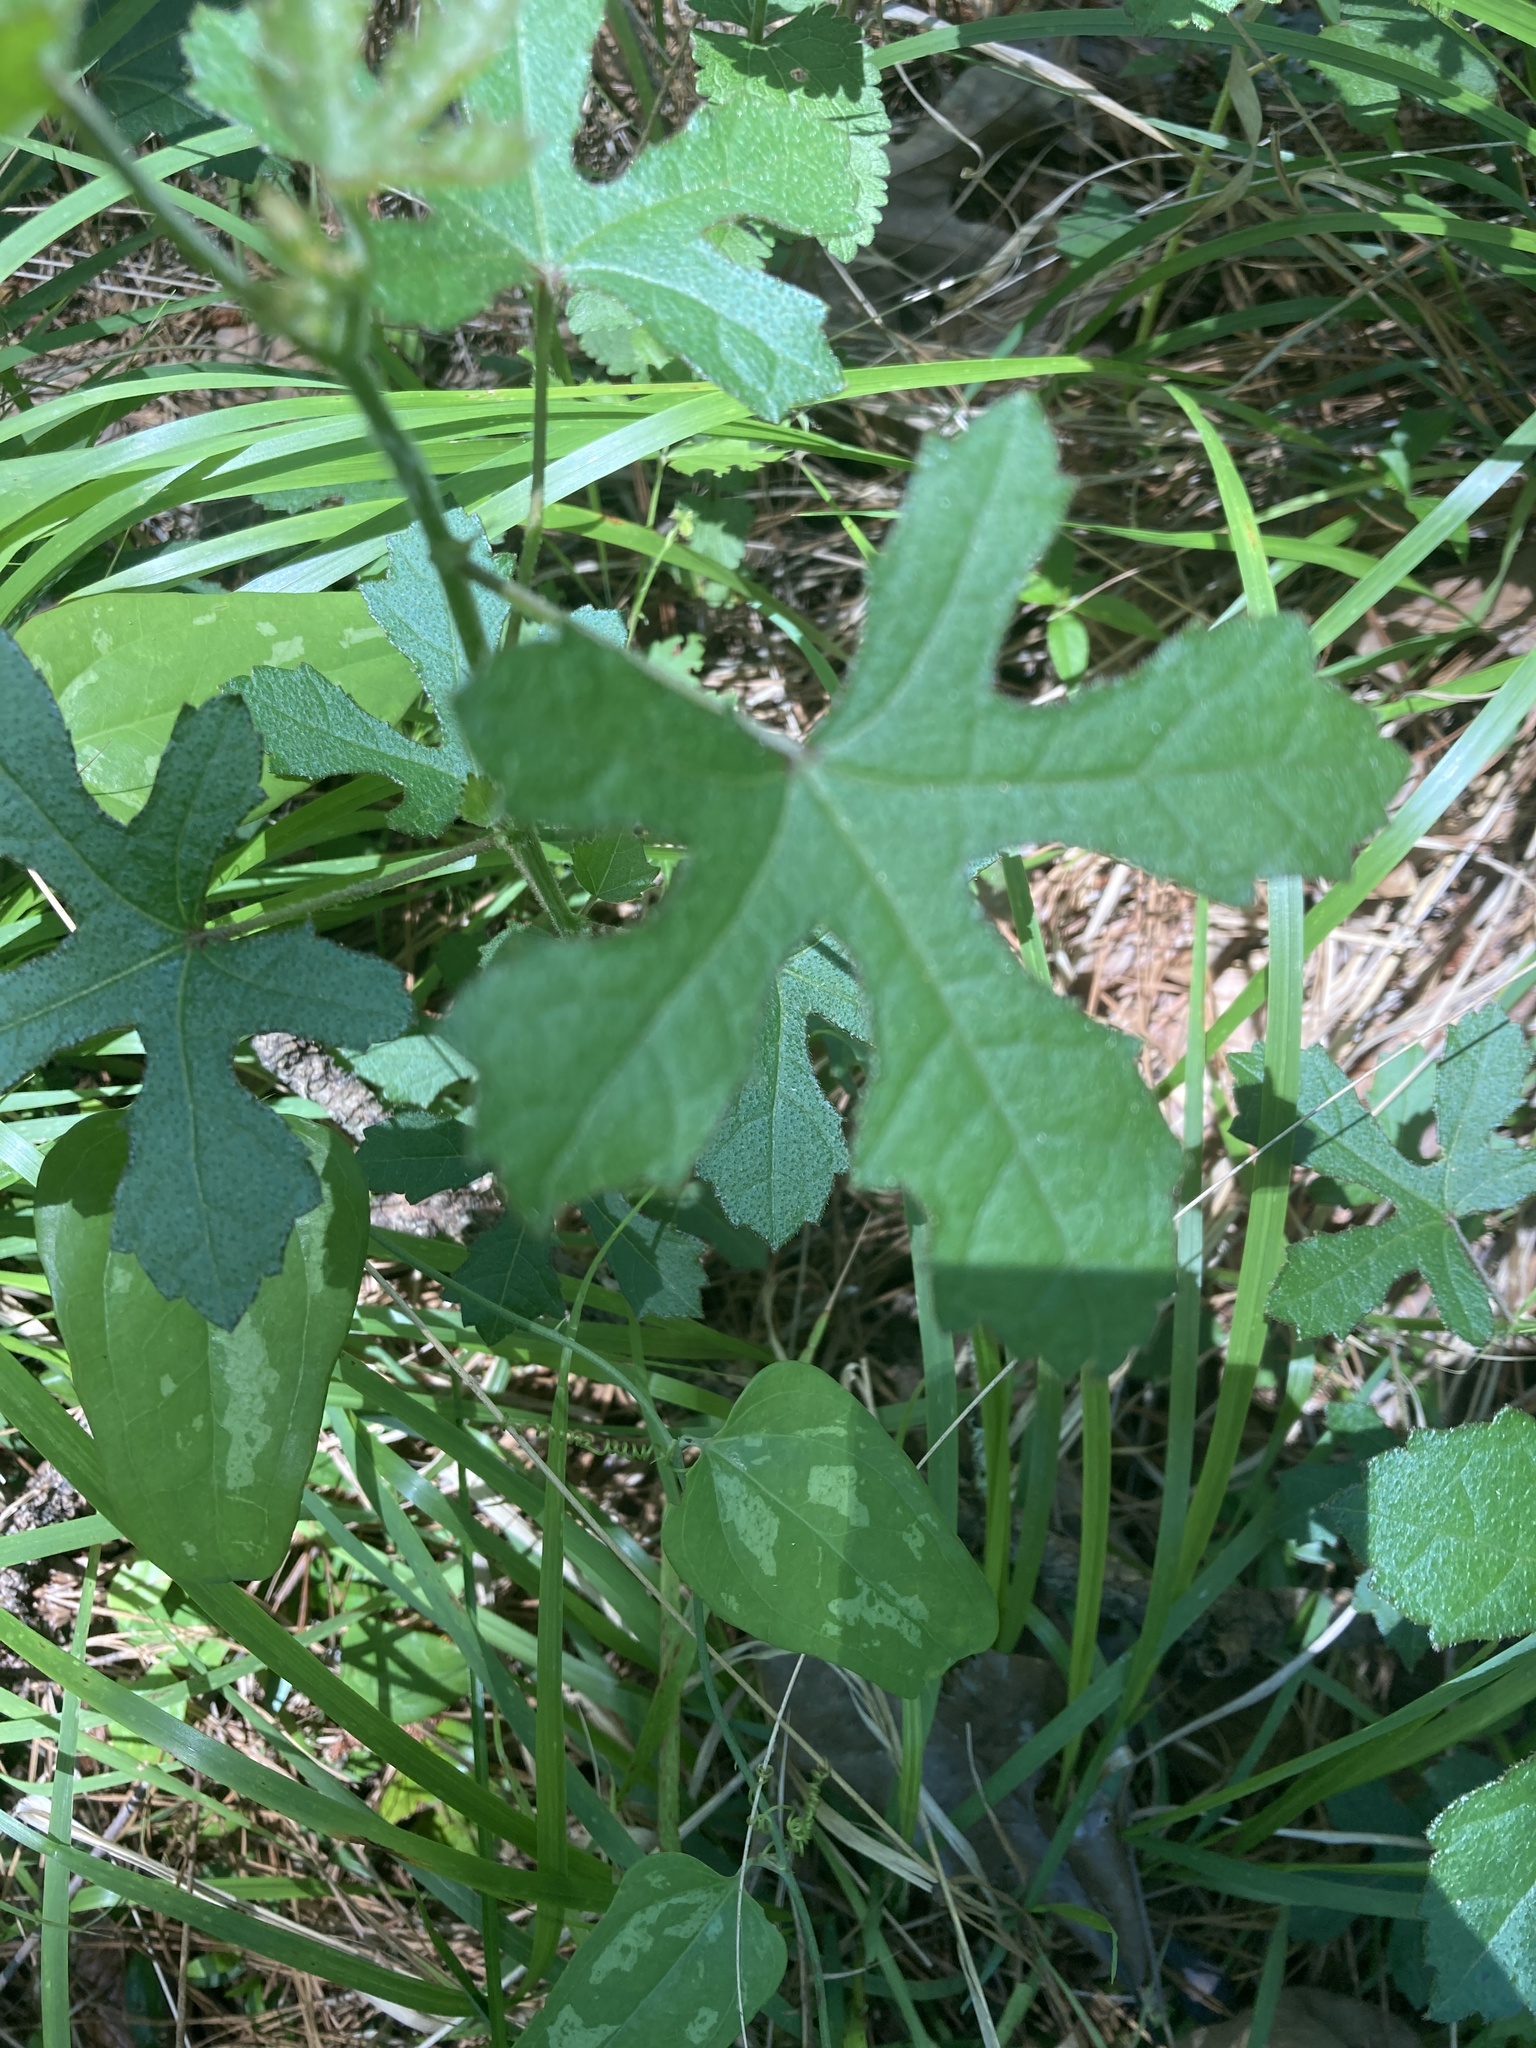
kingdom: Plantae
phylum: Tracheophyta
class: Magnoliopsida
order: Malvales
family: Malvaceae
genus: Hibiscus
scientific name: Hibiscus aculeatus
